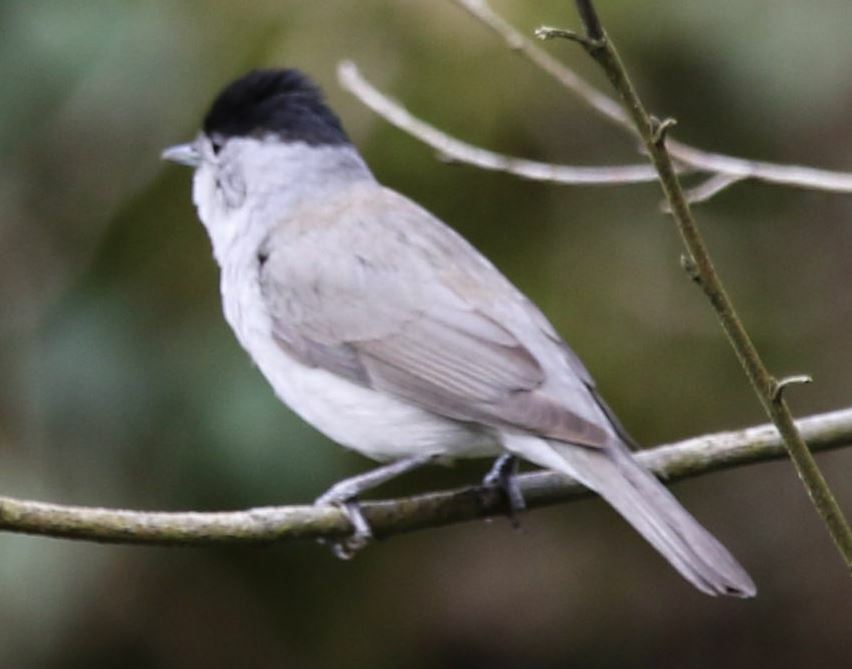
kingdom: Animalia
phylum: Chordata
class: Aves
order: Passeriformes
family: Sylviidae
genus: Sylvia
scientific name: Sylvia atricapilla
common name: Eurasian blackcap
